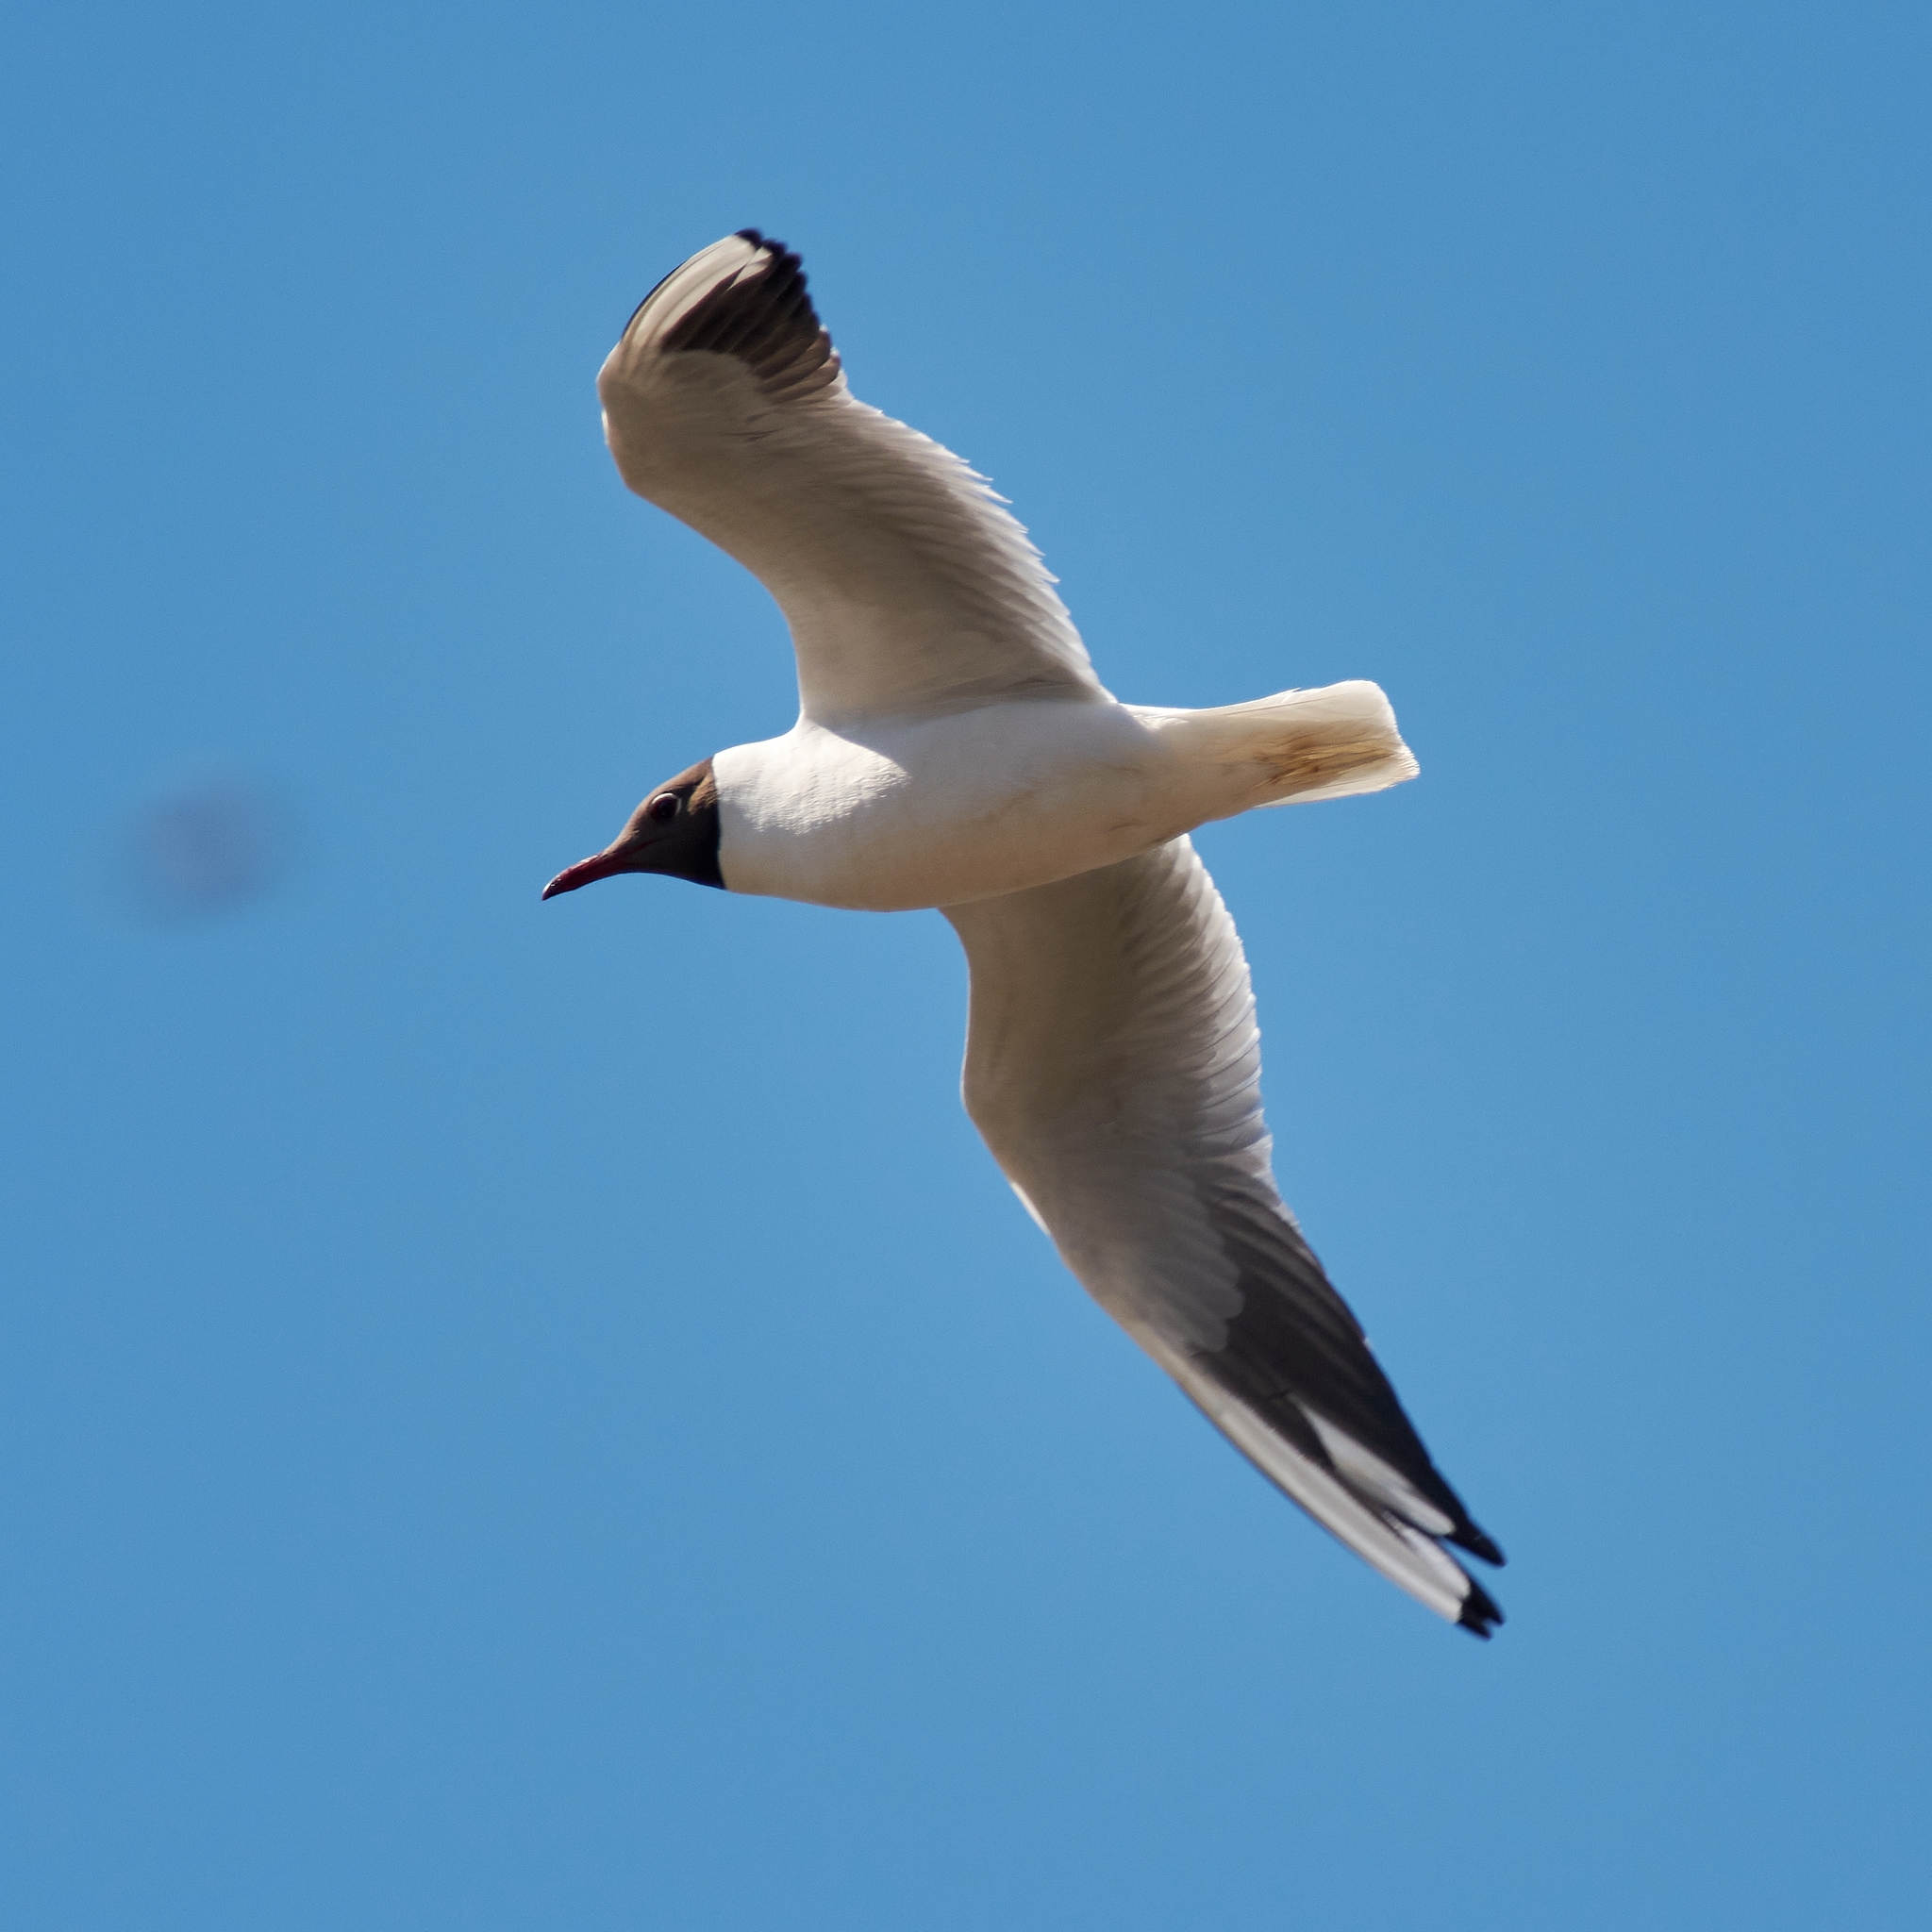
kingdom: Animalia
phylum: Chordata
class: Aves
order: Charadriiformes
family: Laridae
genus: Chroicocephalus
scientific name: Chroicocephalus ridibundus
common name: Black-headed gull
